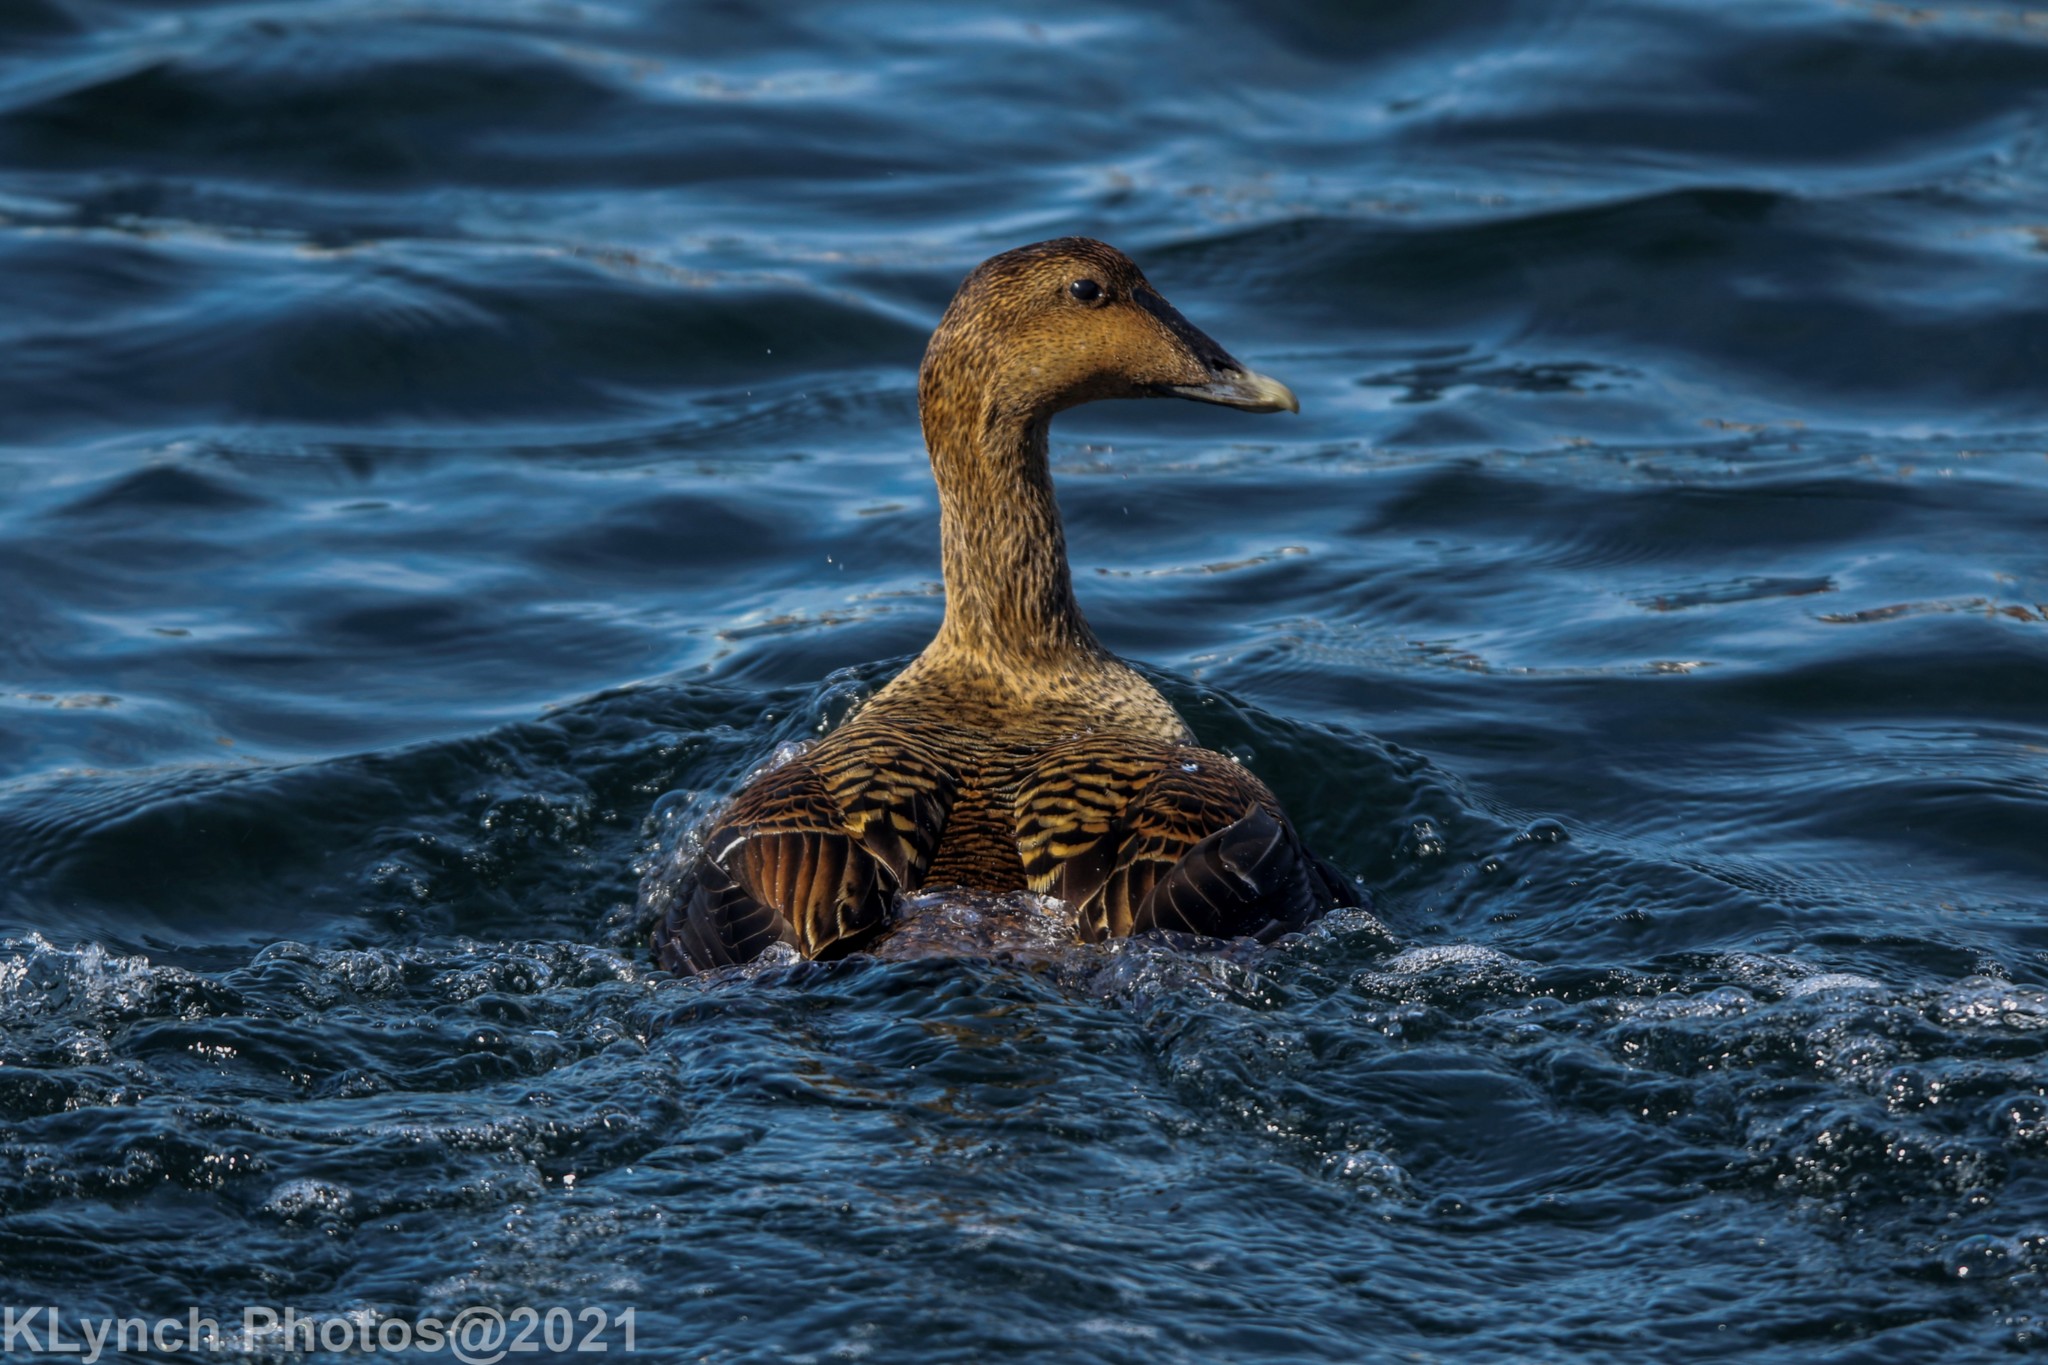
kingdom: Animalia
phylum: Chordata
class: Aves
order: Anseriformes
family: Anatidae
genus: Somateria
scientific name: Somateria mollissima
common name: Common eider
